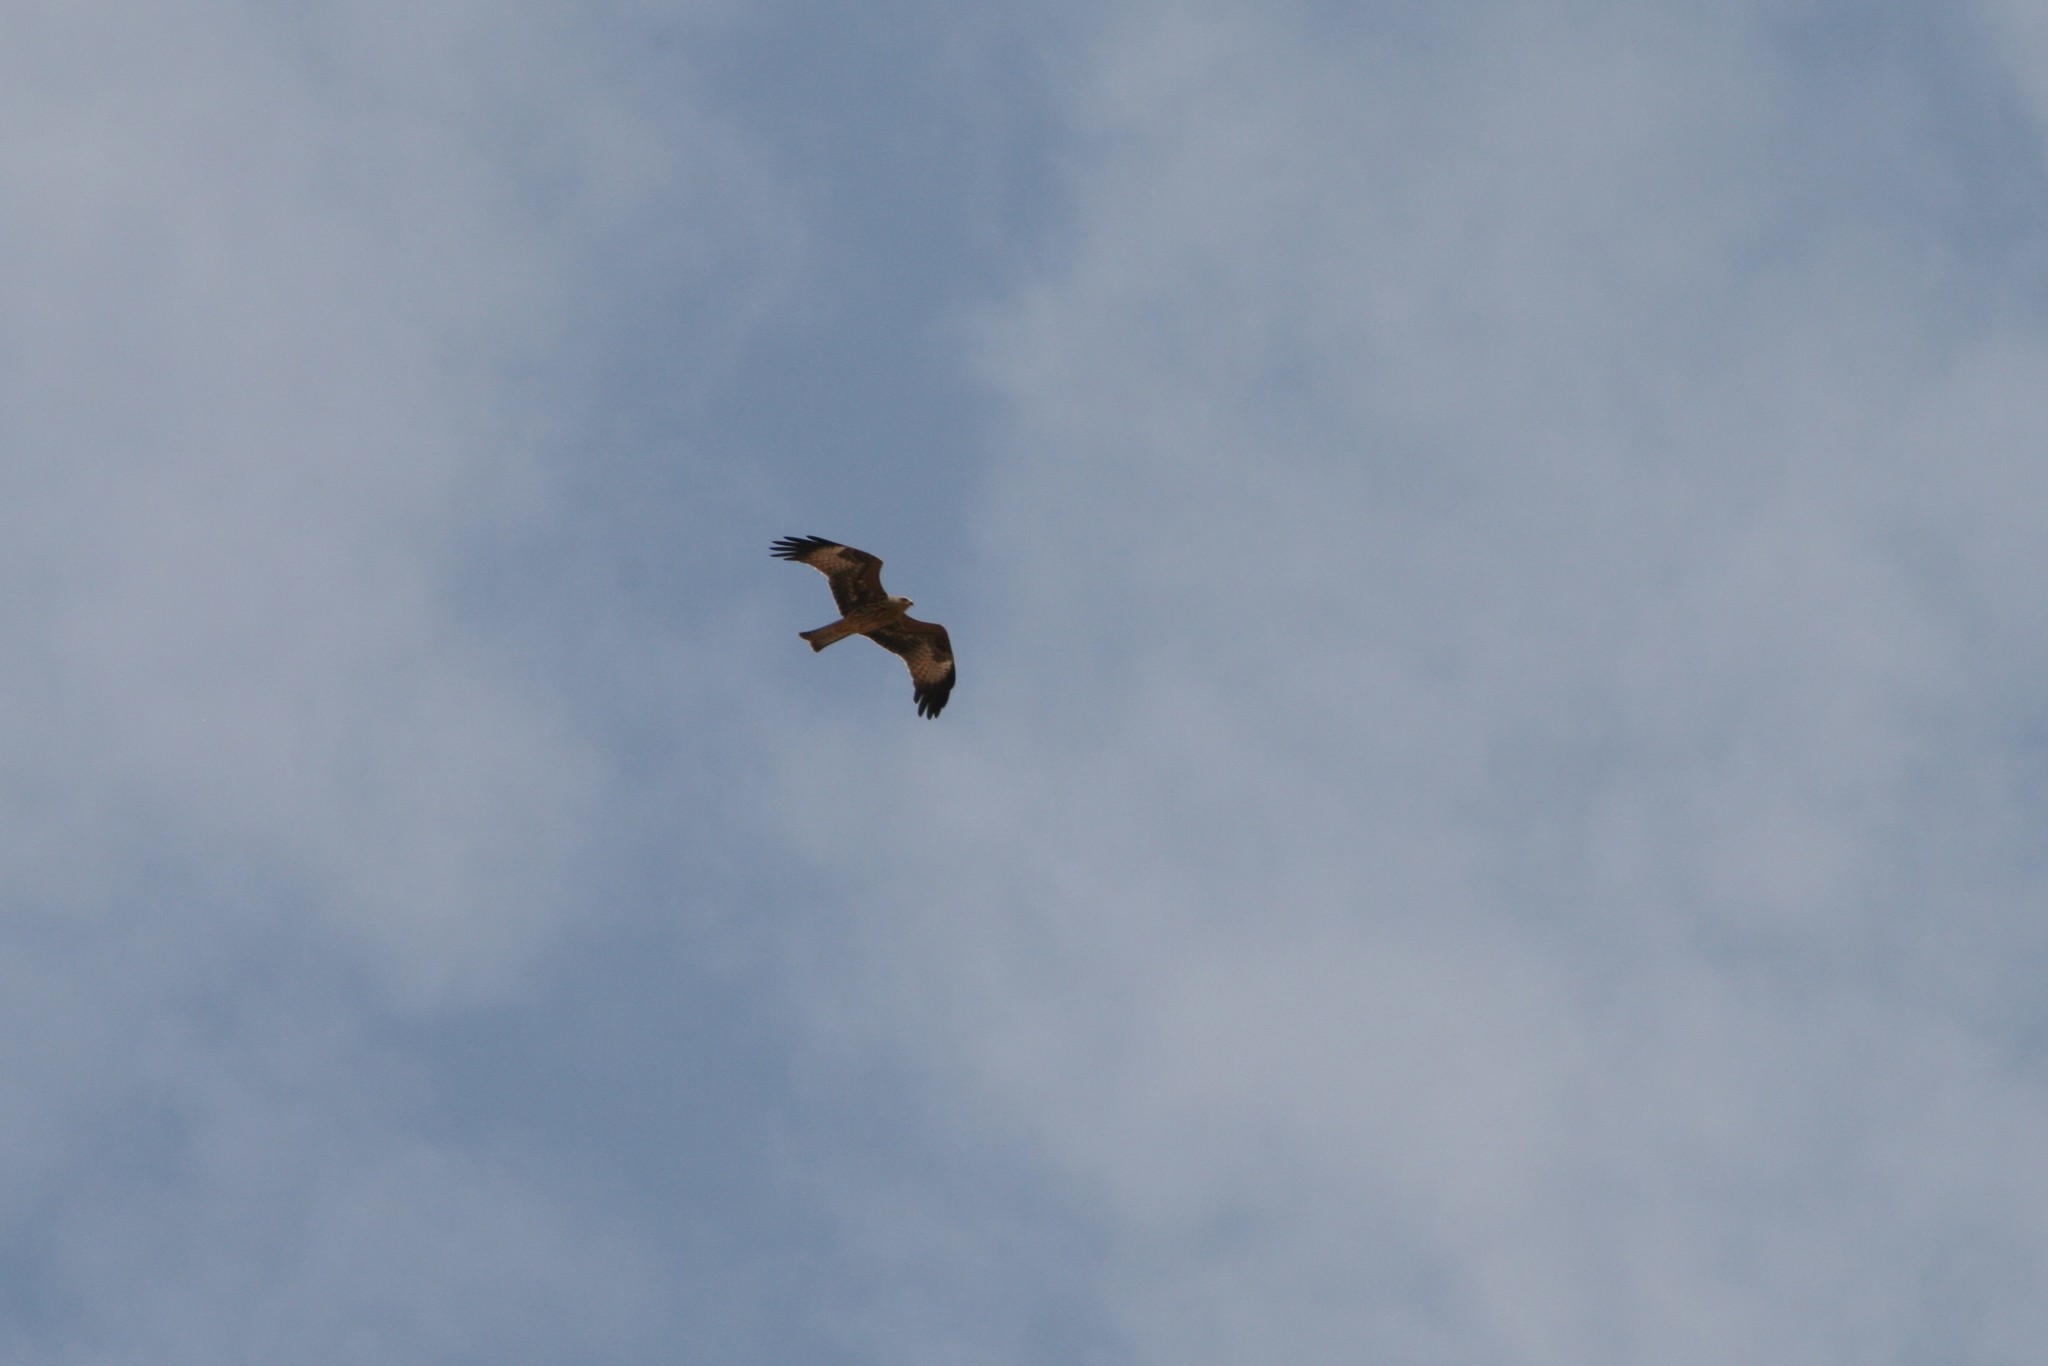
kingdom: Animalia
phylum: Chordata
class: Aves
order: Accipitriformes
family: Accipitridae
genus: Milvus
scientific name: Milvus migrans
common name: Black kite
